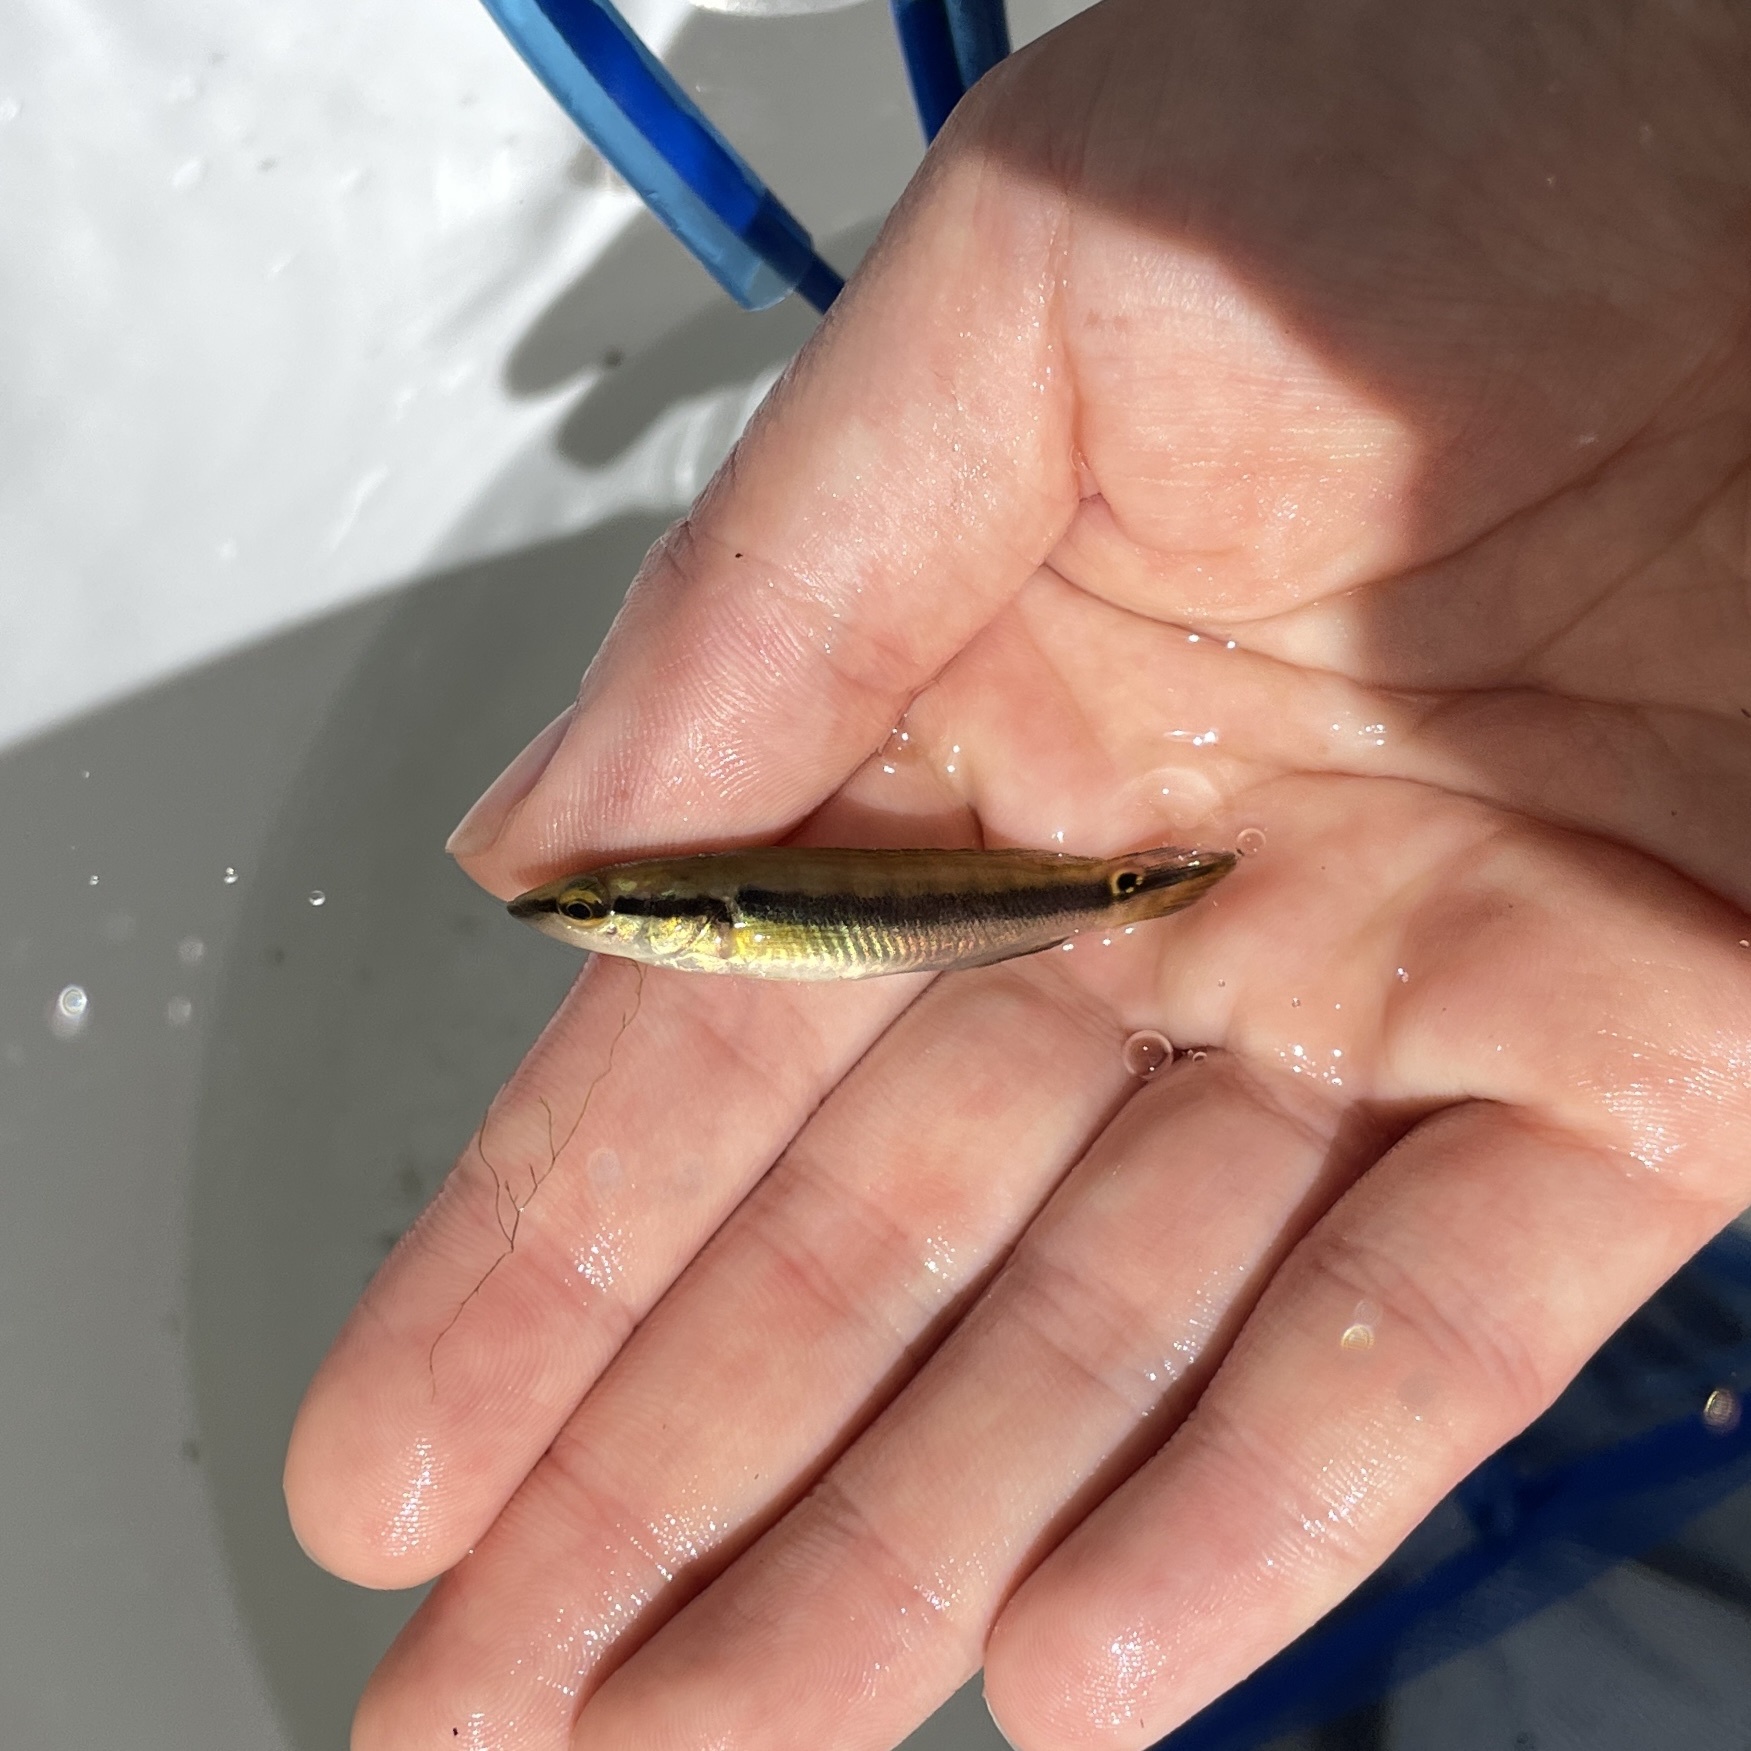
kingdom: Animalia
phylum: Chordata
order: Perciformes
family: Cichlidae
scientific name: Cichlidae
